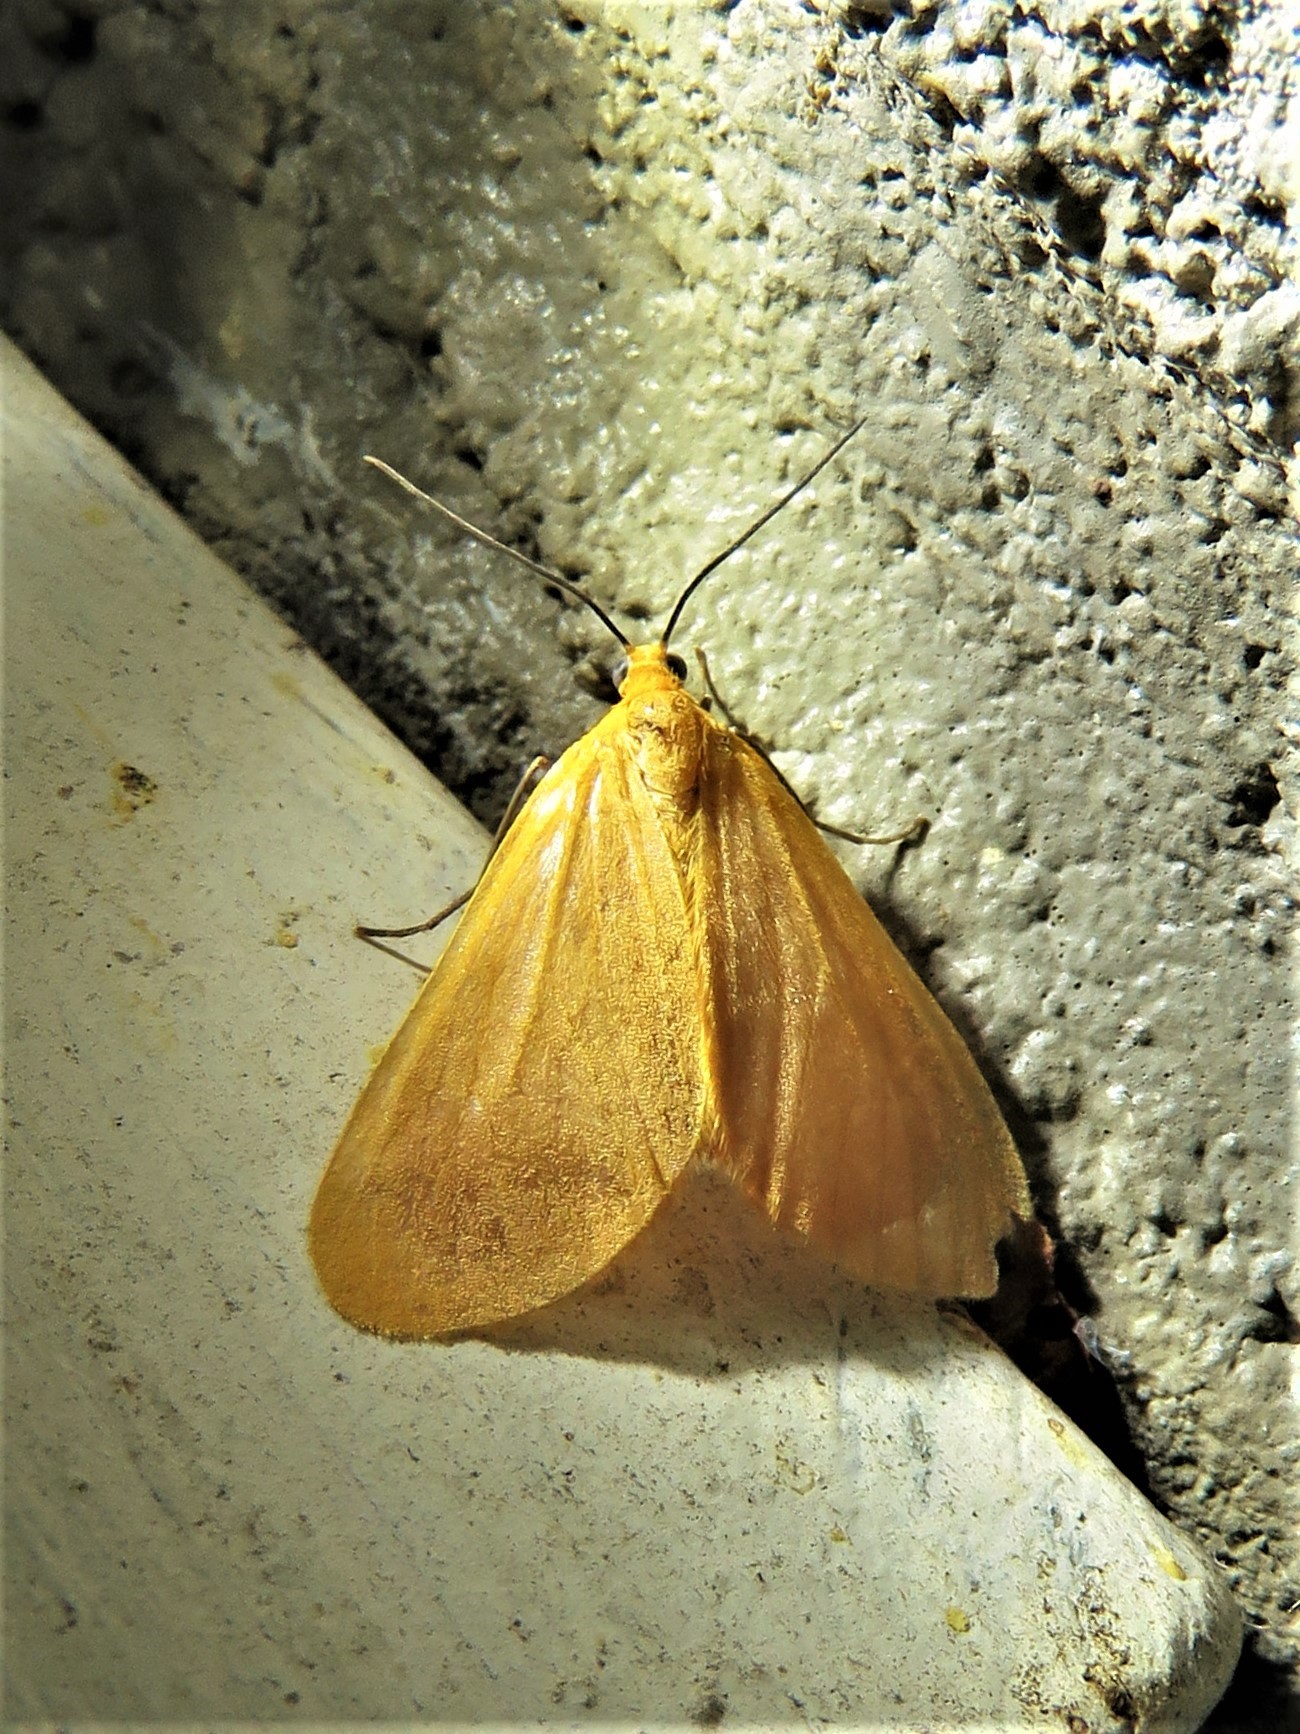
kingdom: Animalia
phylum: Arthropoda
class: Insecta
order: Lepidoptera
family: Geometridae
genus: Eubaphe
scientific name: Eubaphe unicolor
